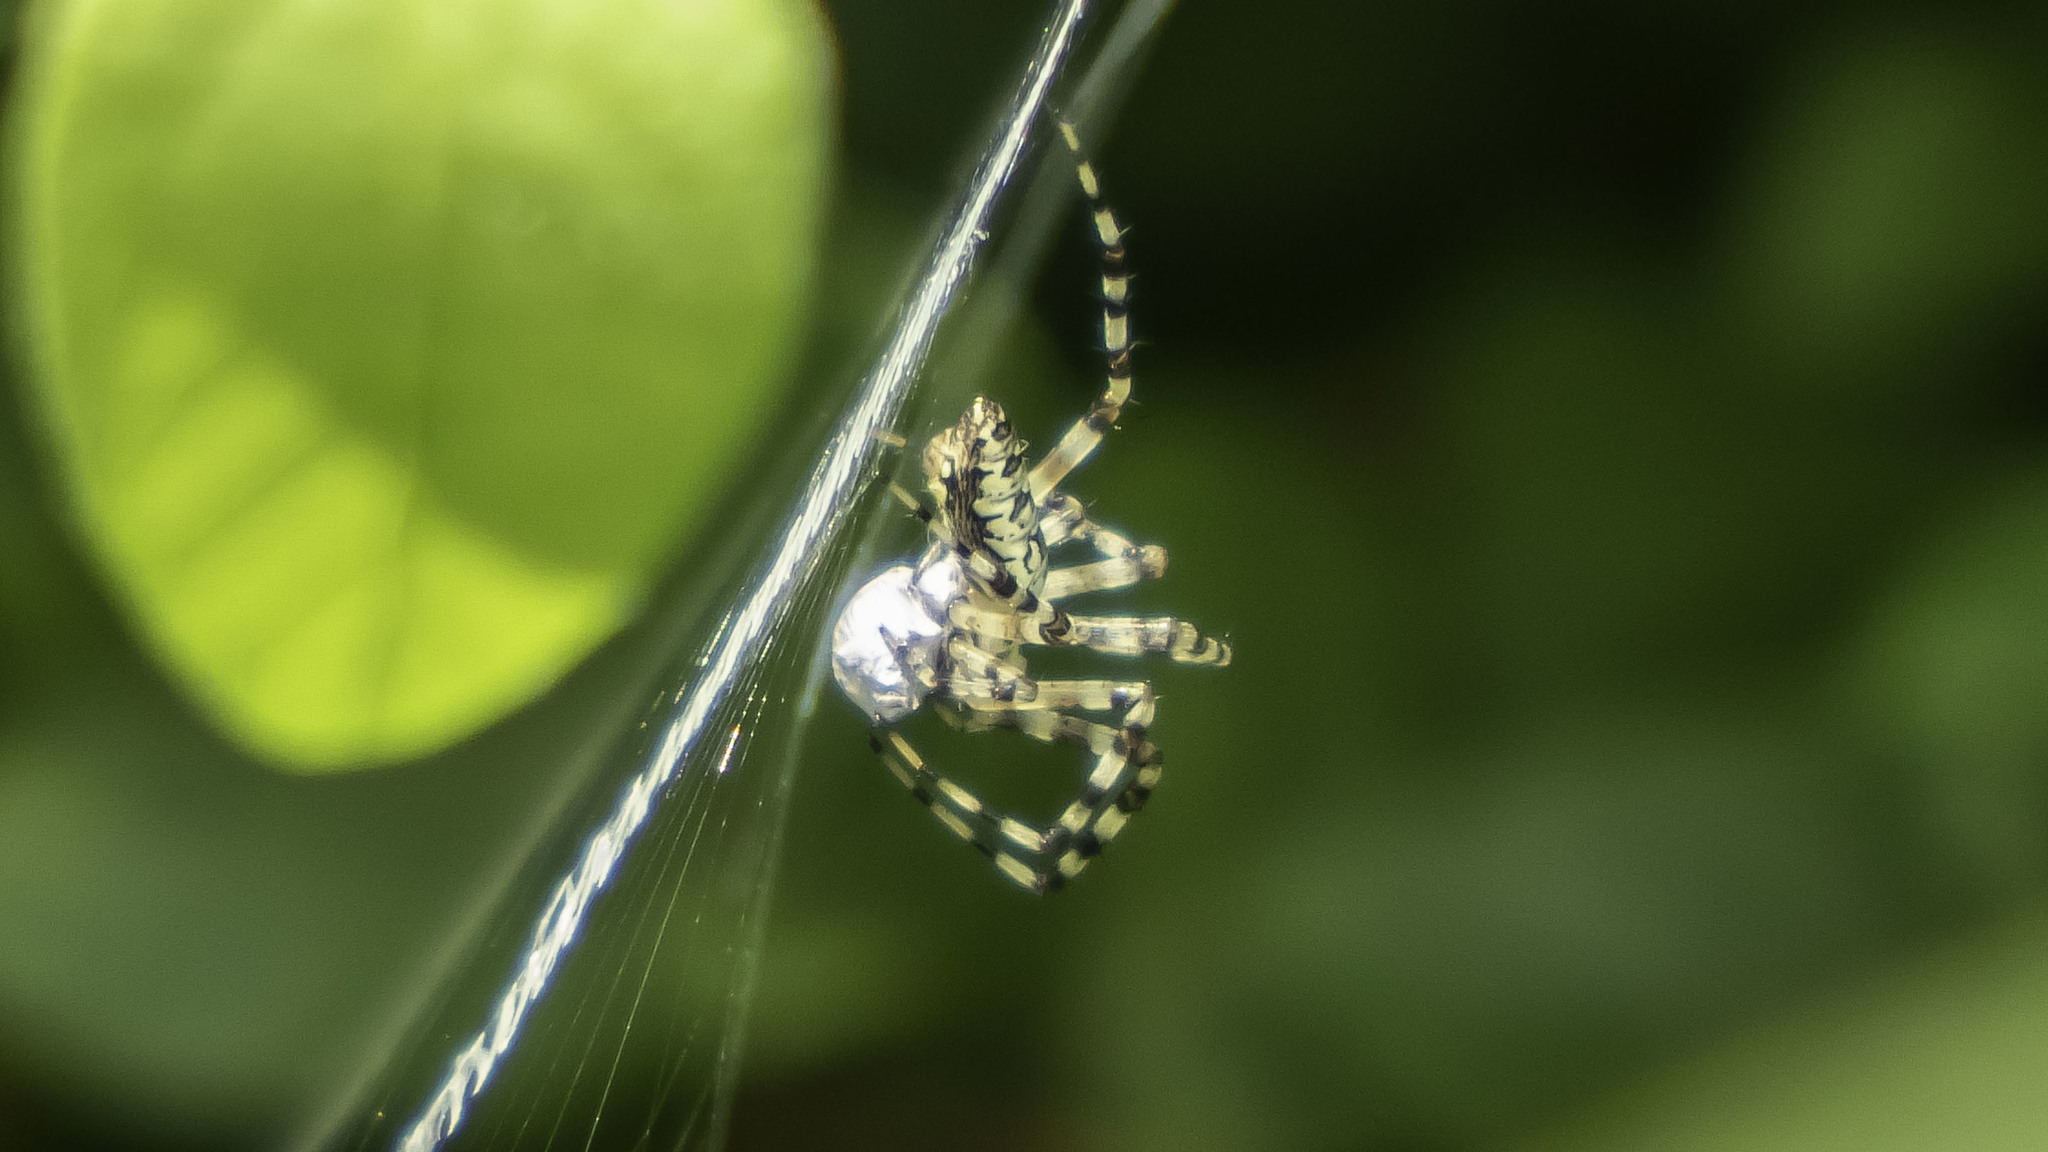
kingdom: Animalia
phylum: Arthropoda
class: Arachnida
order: Araneae
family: Araneidae
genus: Argiope
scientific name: Argiope aurantia
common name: Orb weavers
